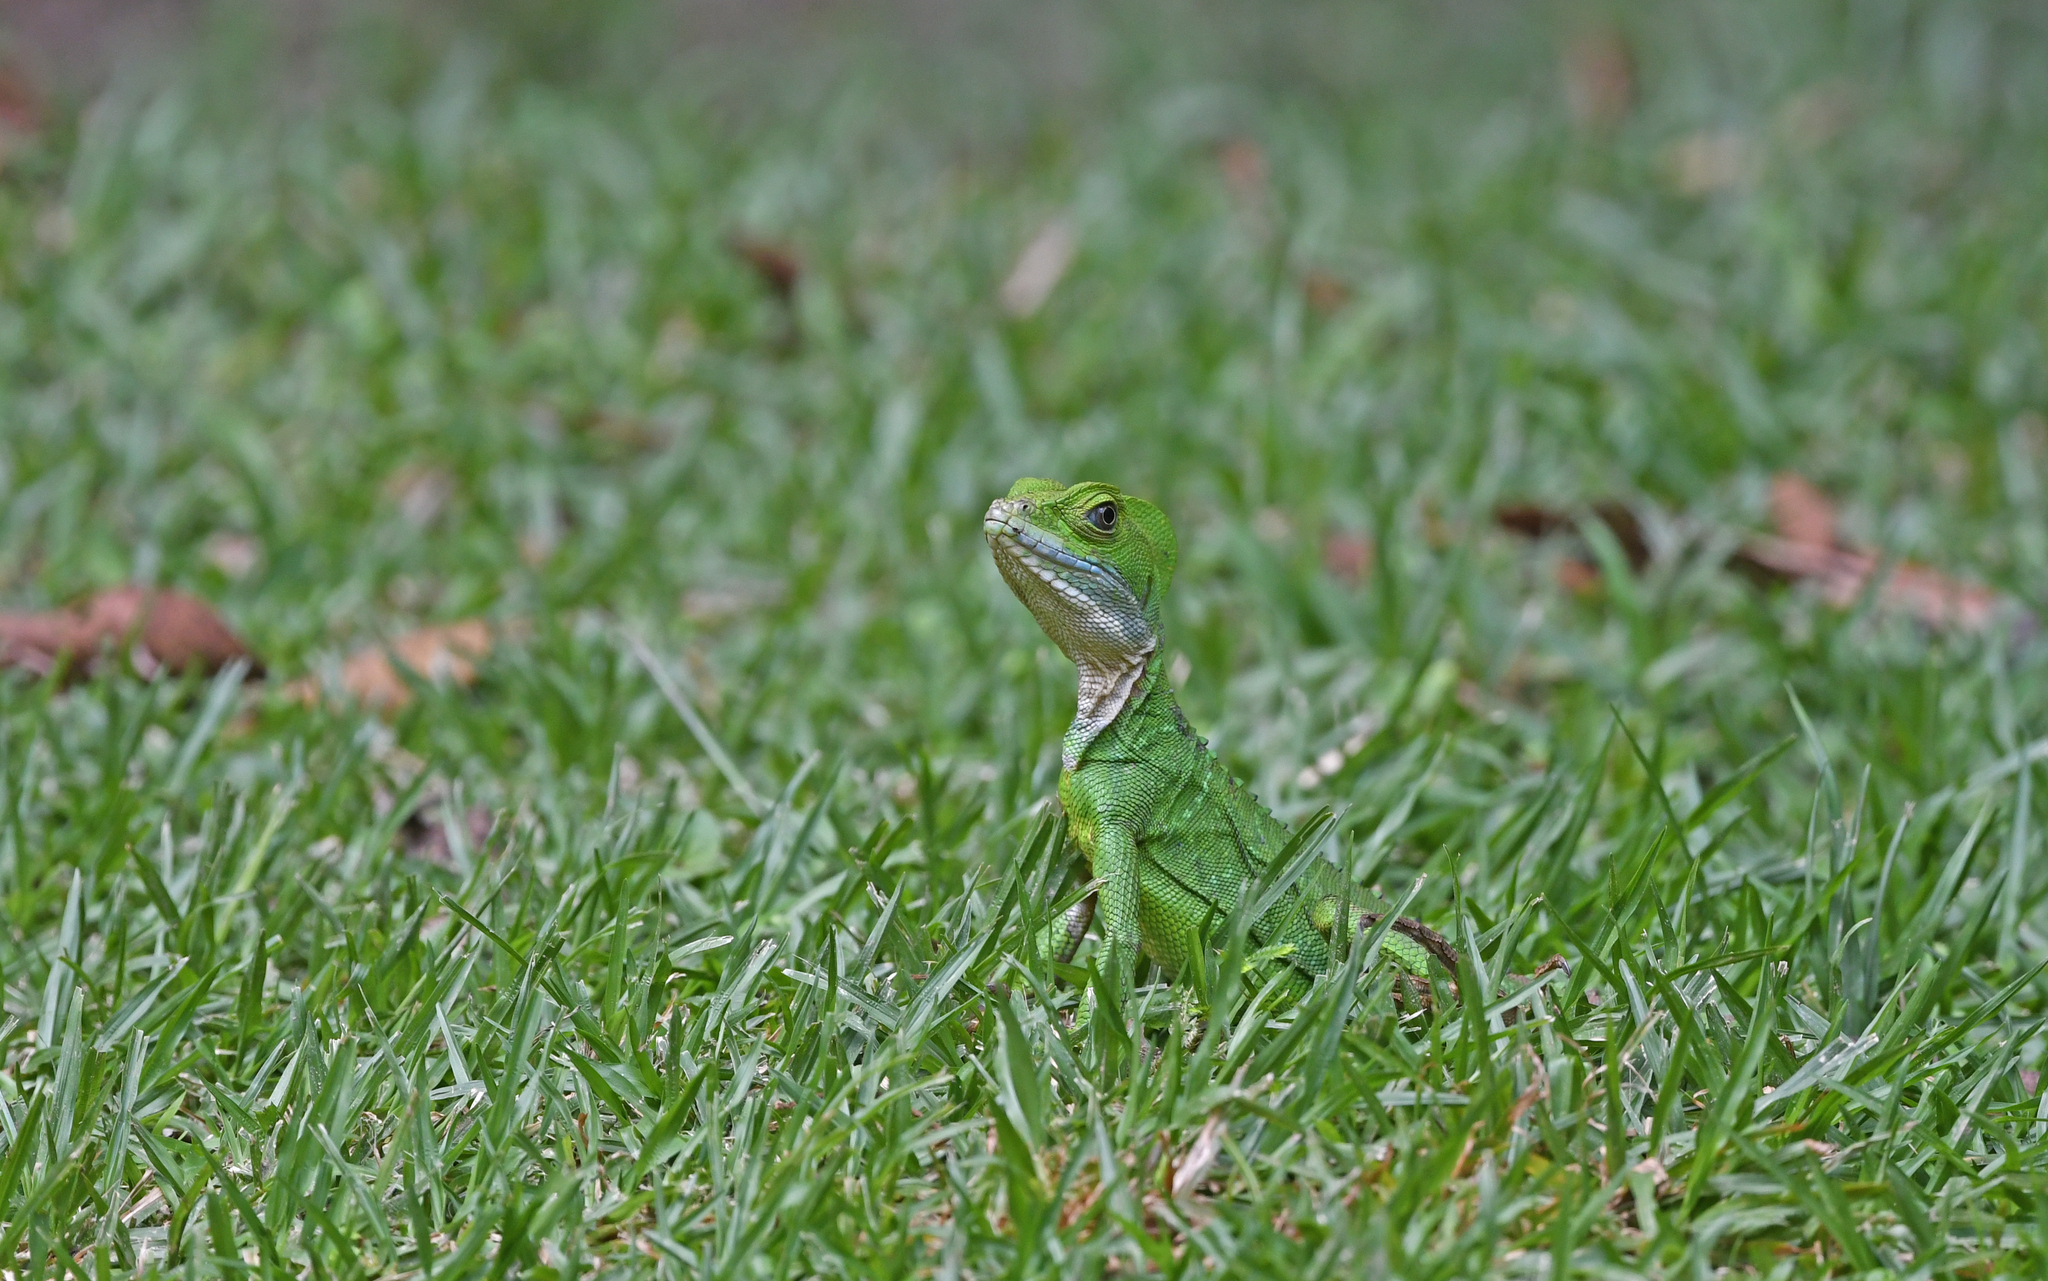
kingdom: Animalia
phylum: Chordata
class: Squamata
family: Corytophanidae
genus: Basiliscus
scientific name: Basiliscus galeritus
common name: Western basilisk
